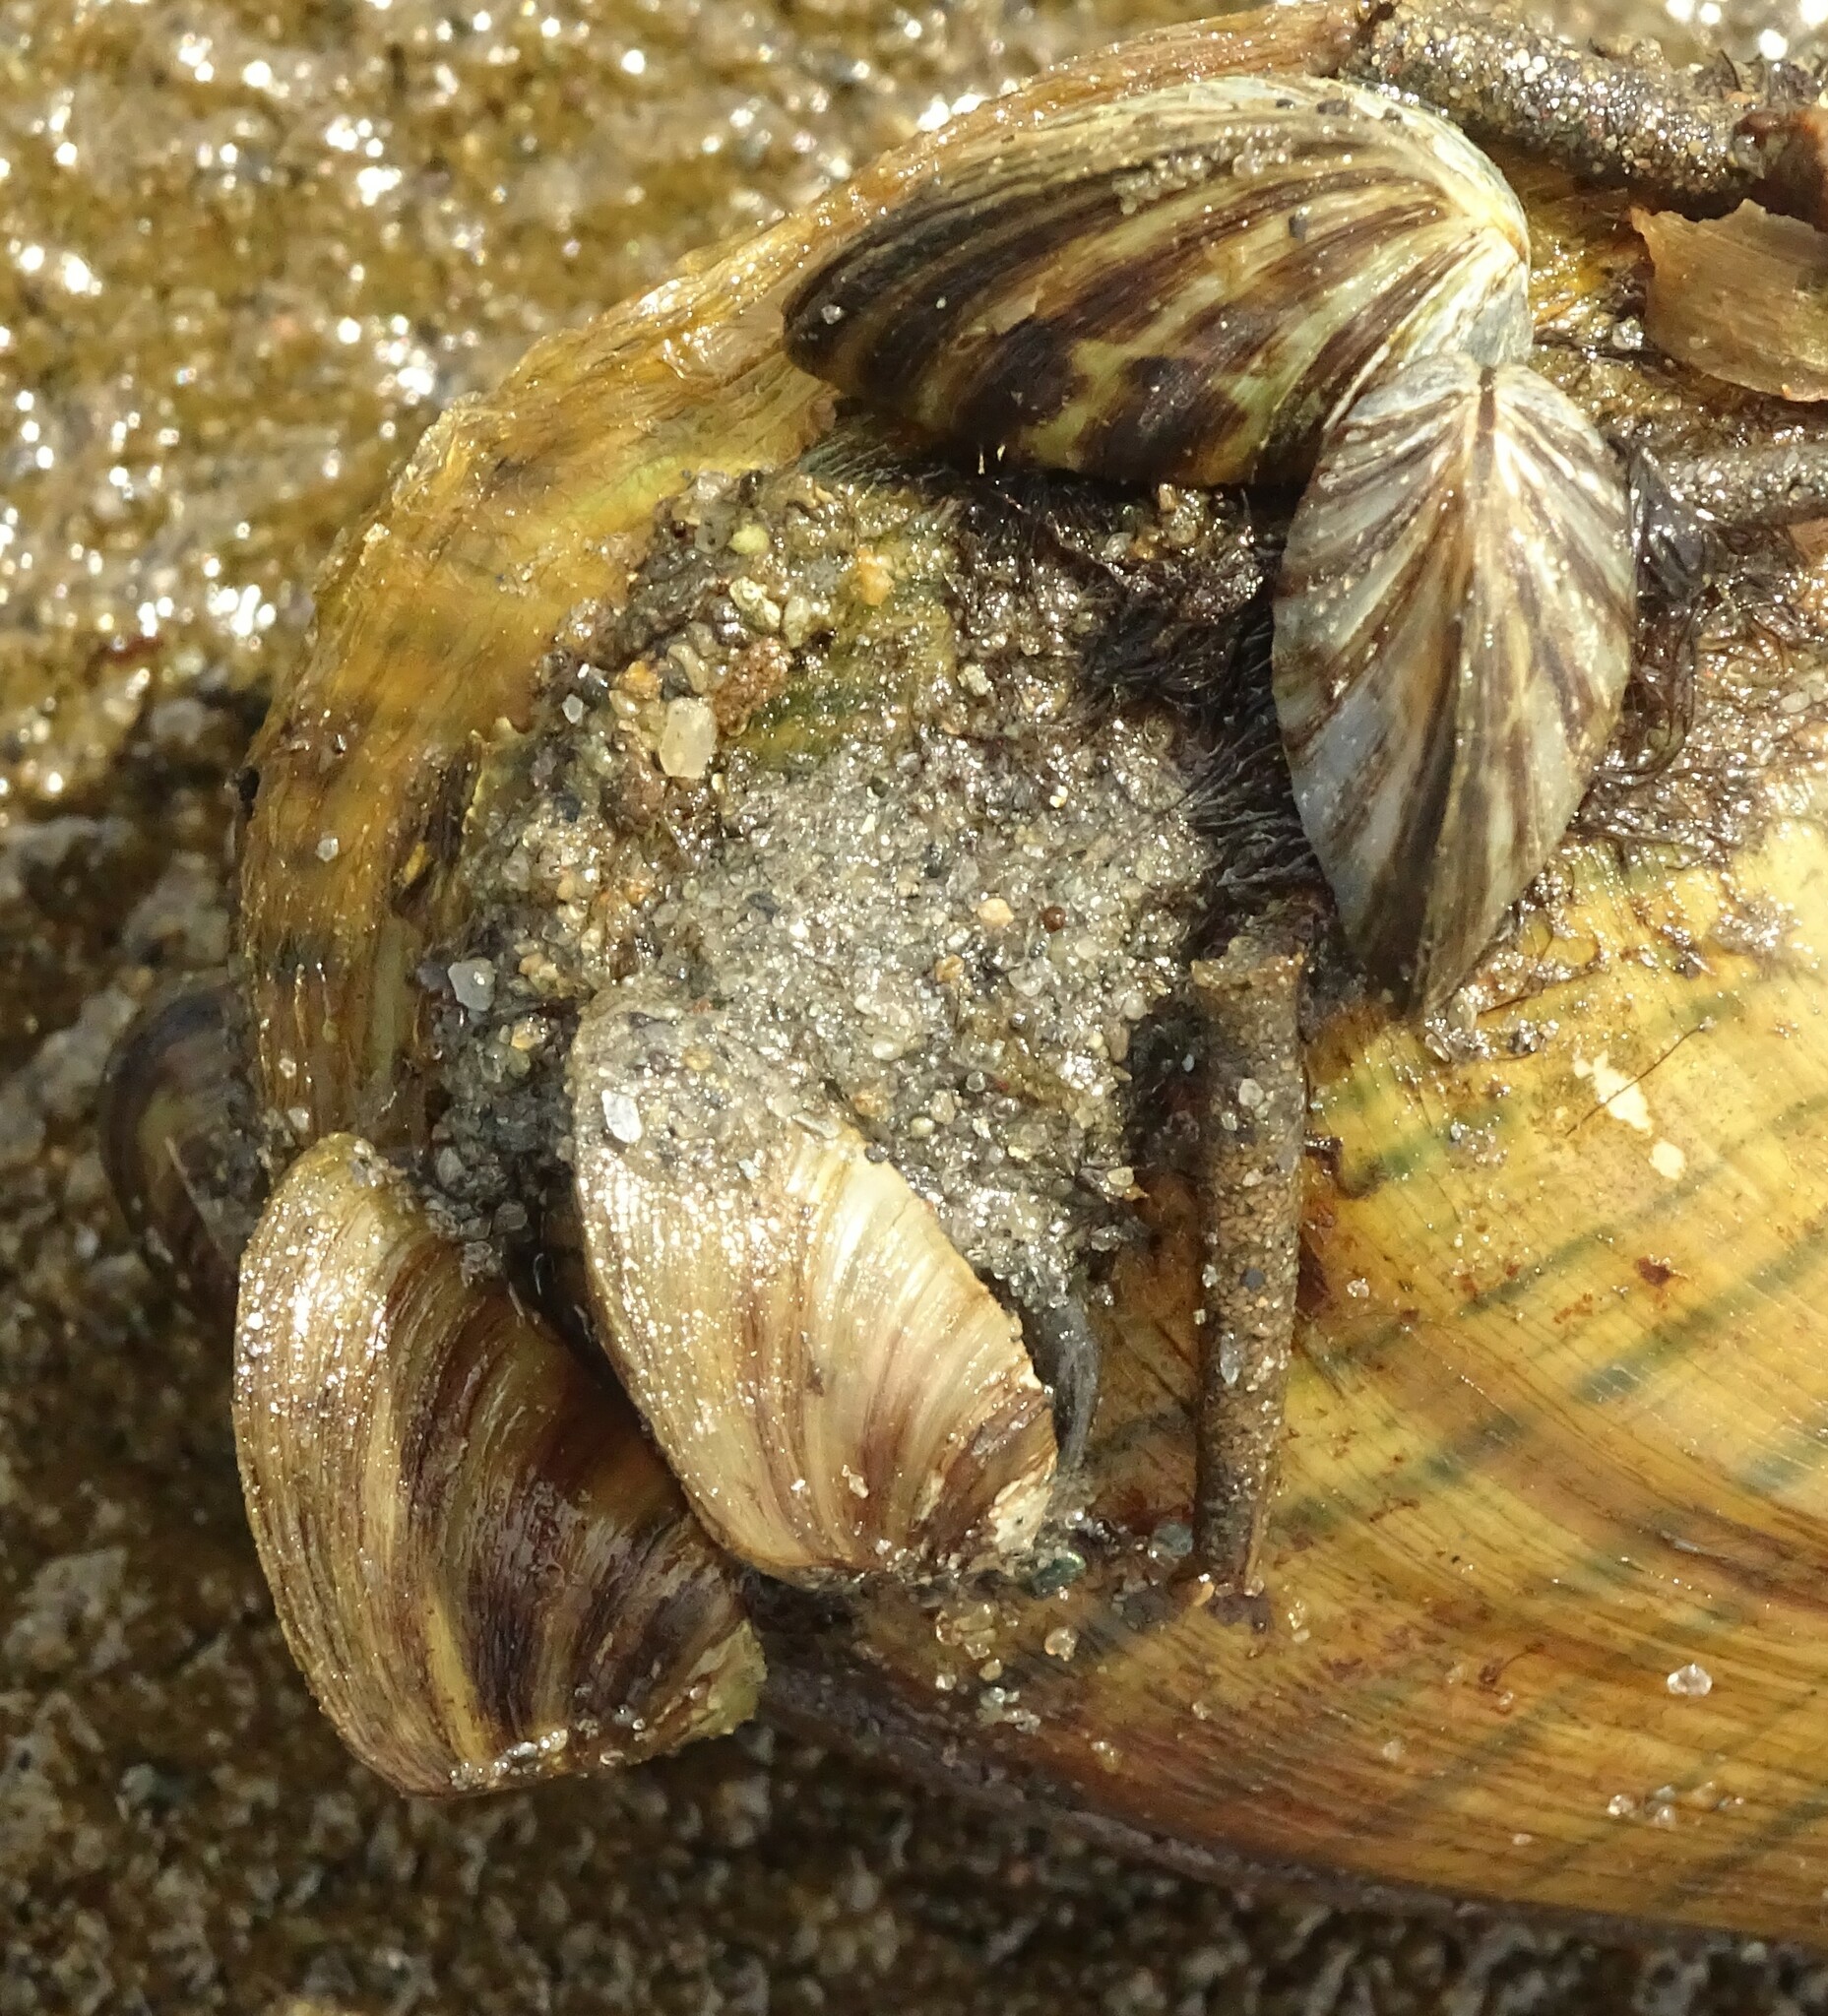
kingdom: Animalia
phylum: Mollusca
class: Bivalvia
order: Myida
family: Dreissenidae
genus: Dreissena
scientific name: Dreissena polymorpha
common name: Zebra mussel
